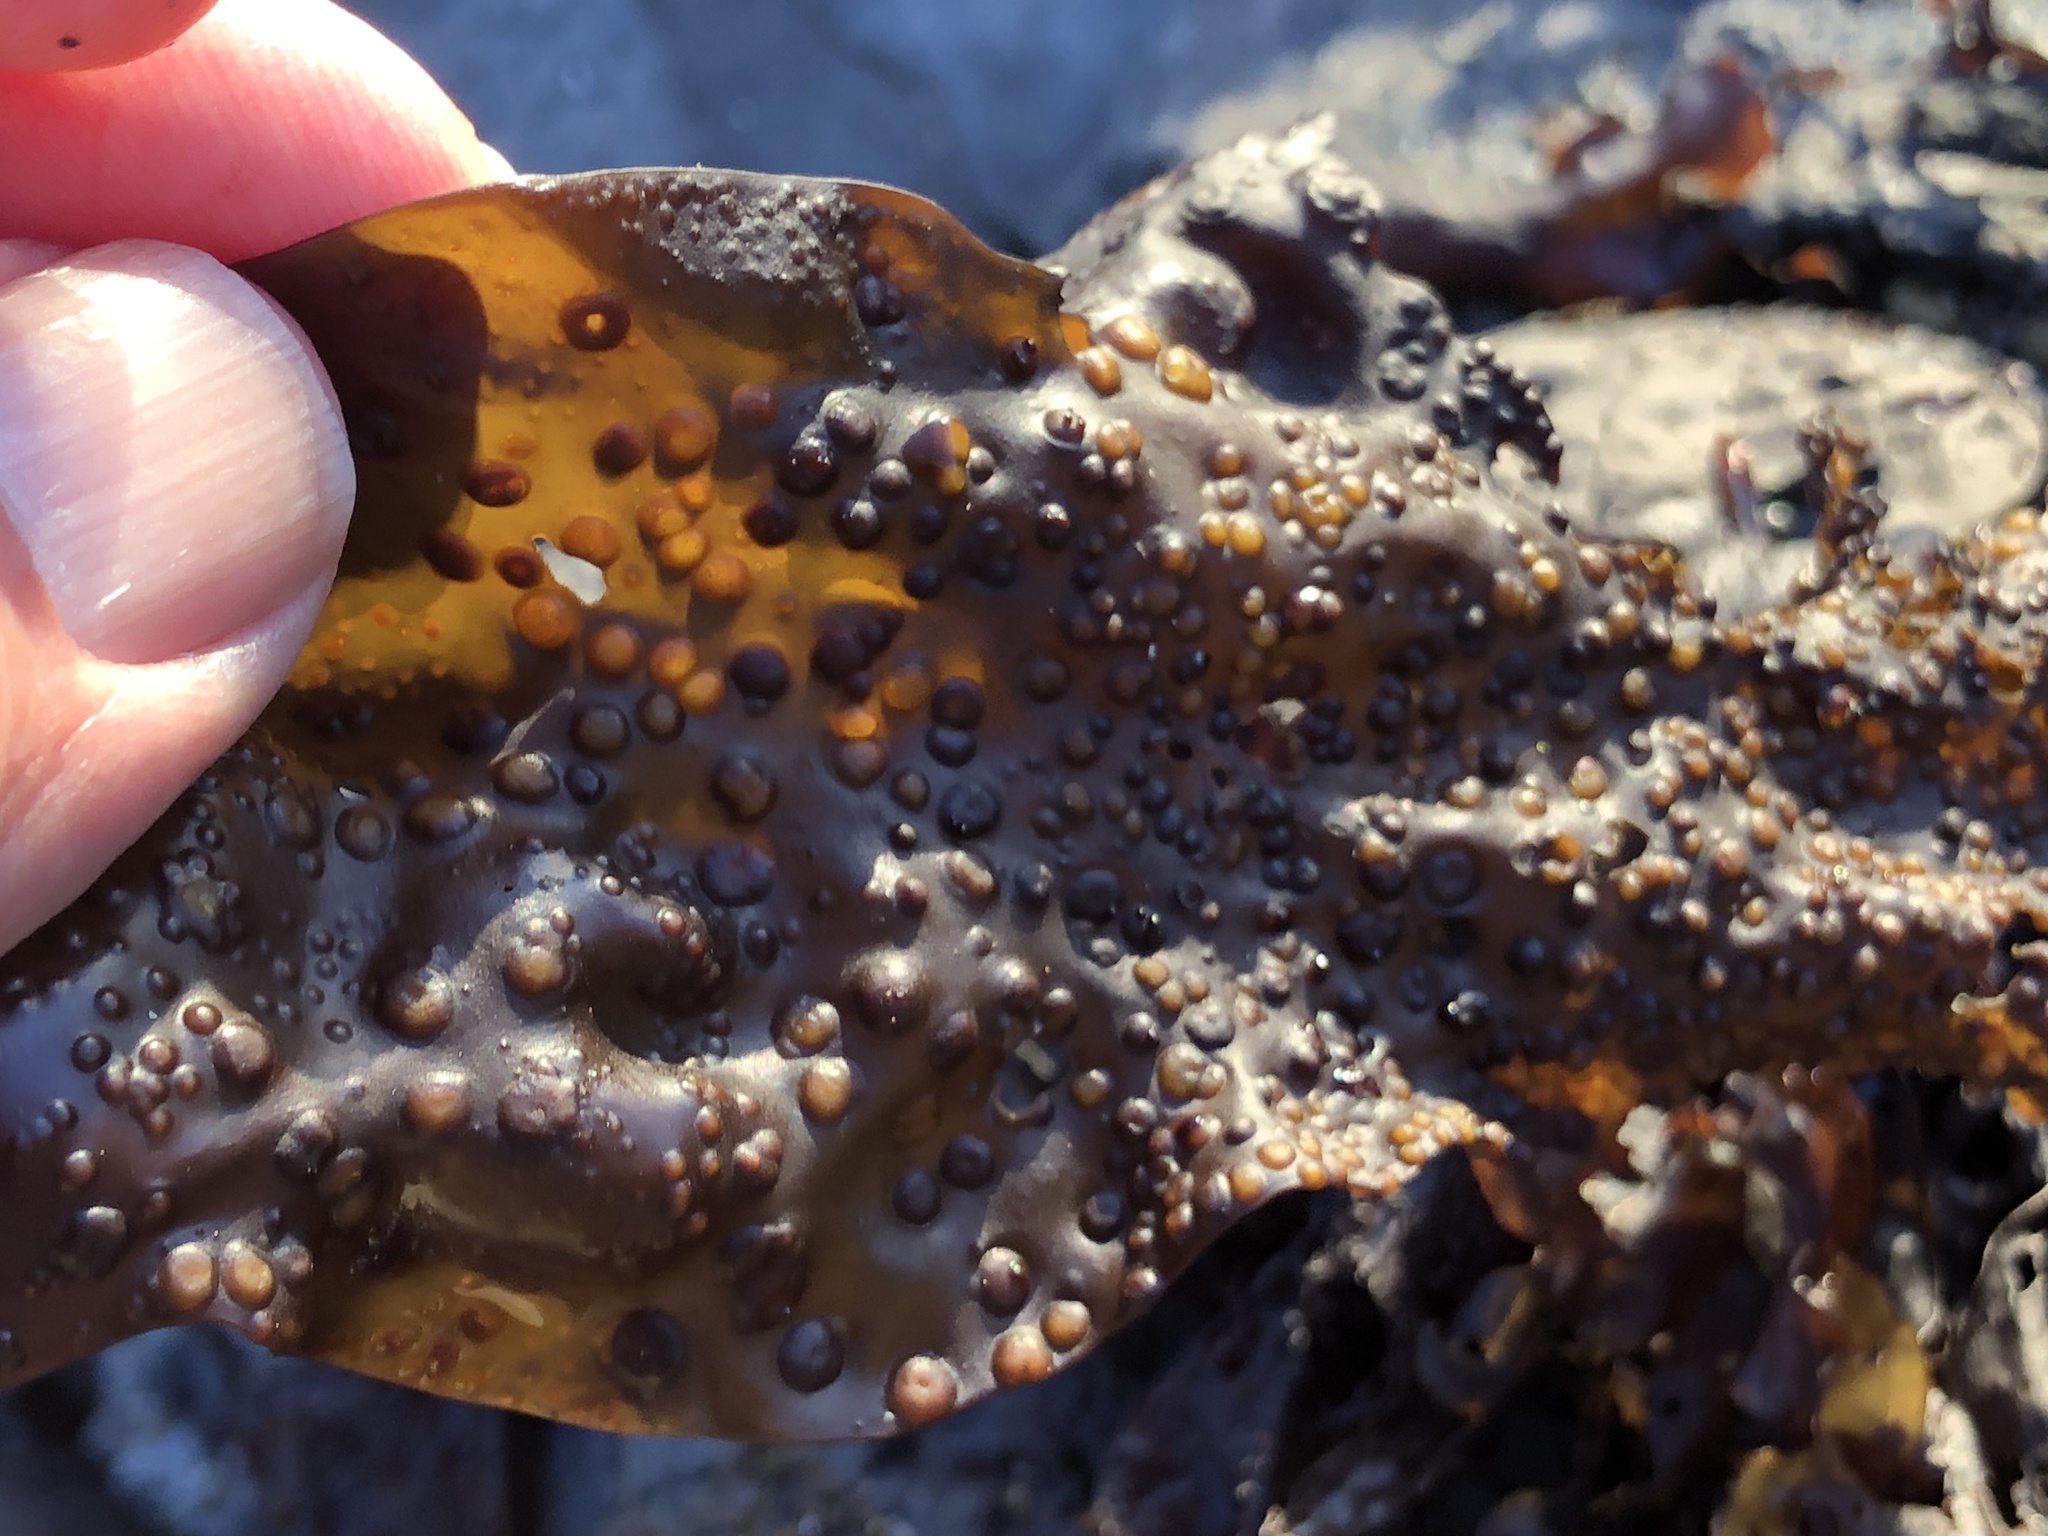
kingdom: Plantae
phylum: Rhodophyta
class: Florideophyceae
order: Gigartinales
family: Gigartinaceae
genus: Mazzaella
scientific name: Mazzaella oregona
